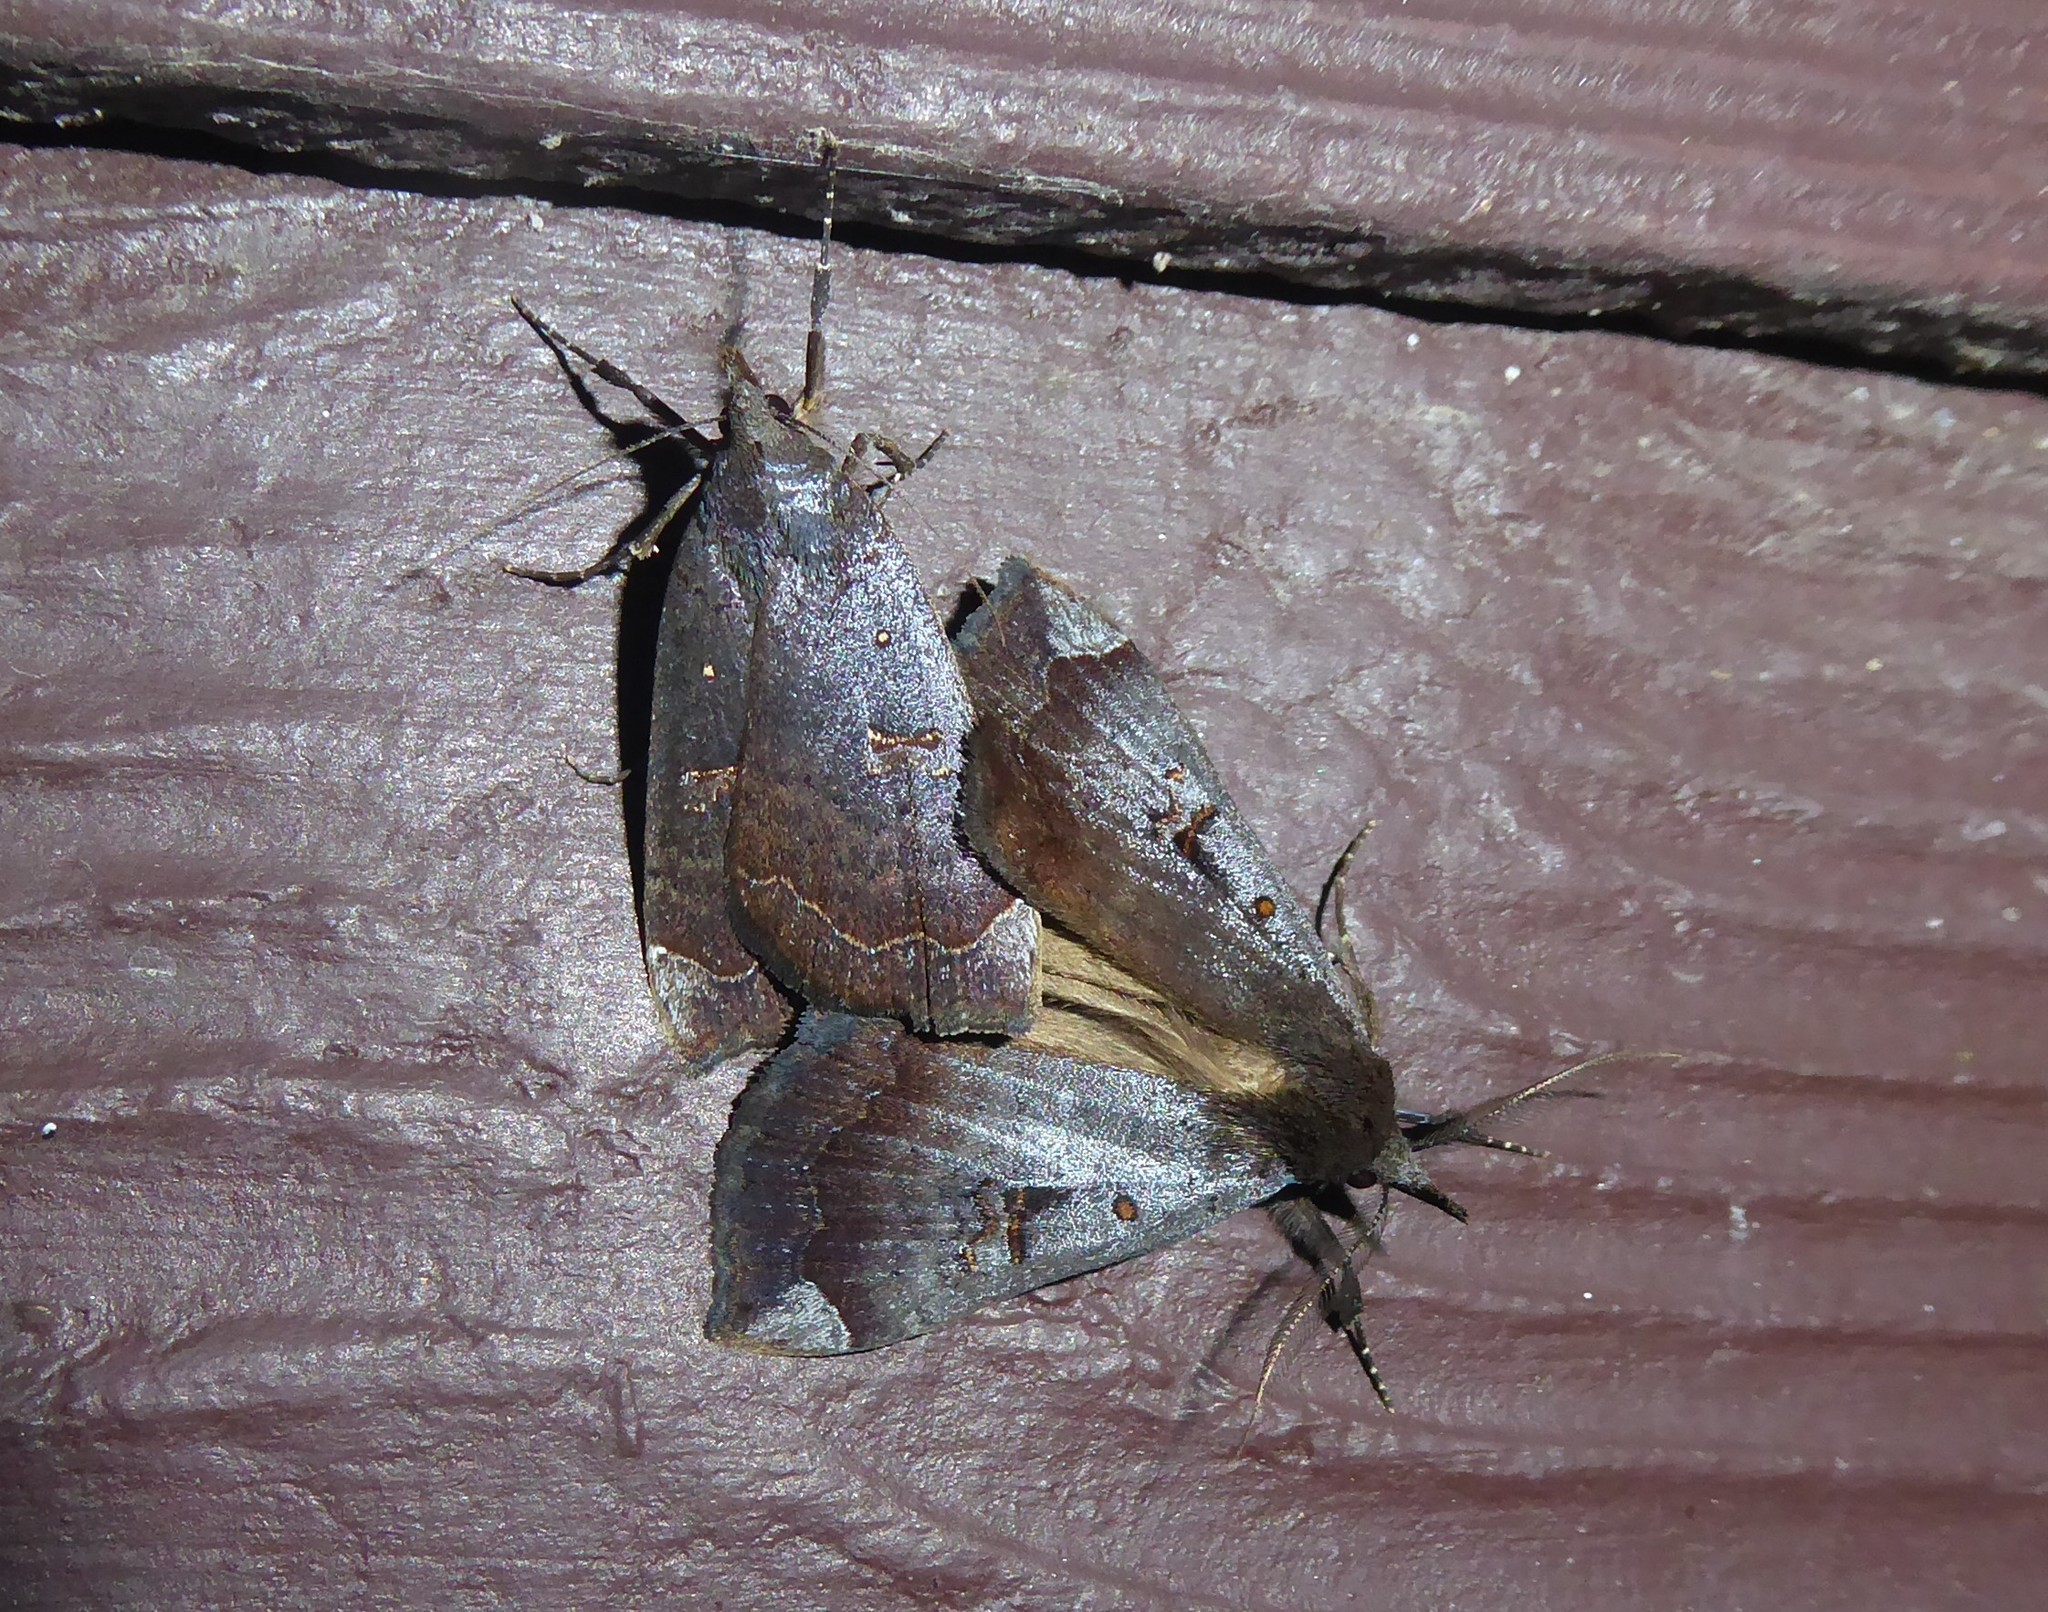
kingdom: Animalia
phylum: Arthropoda
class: Insecta
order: Lepidoptera
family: Erebidae
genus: Rhapsa
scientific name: Rhapsa scotosialis
